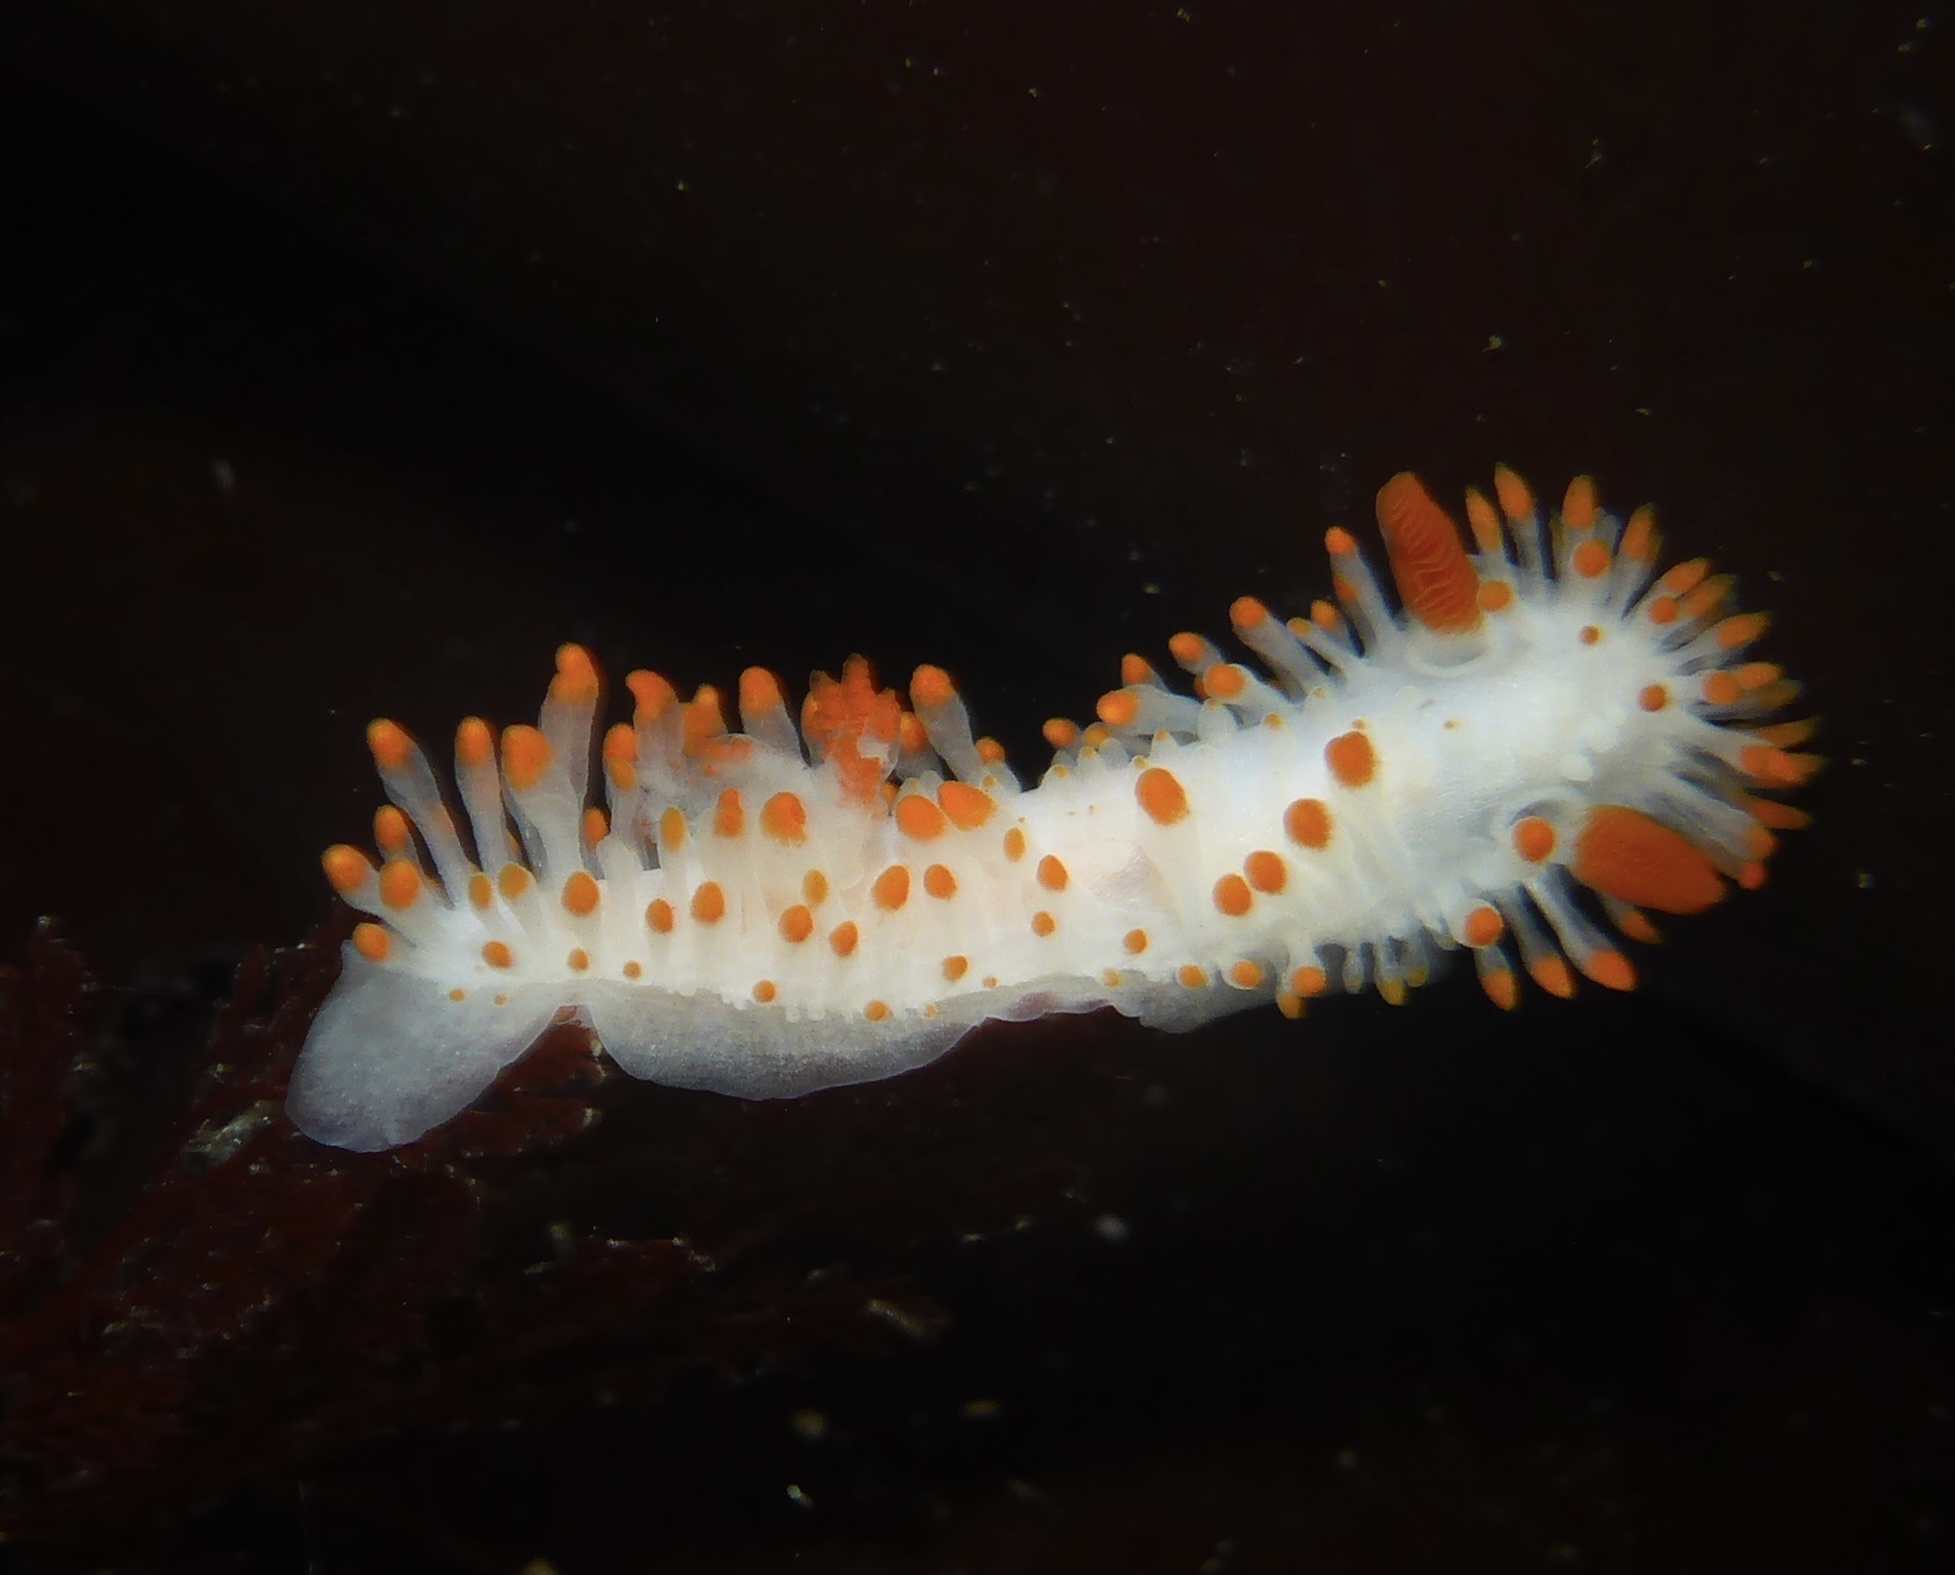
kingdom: Animalia
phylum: Mollusca
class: Gastropoda
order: Nudibranchia
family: Polyceridae
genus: Limacia
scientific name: Limacia cockerelli
